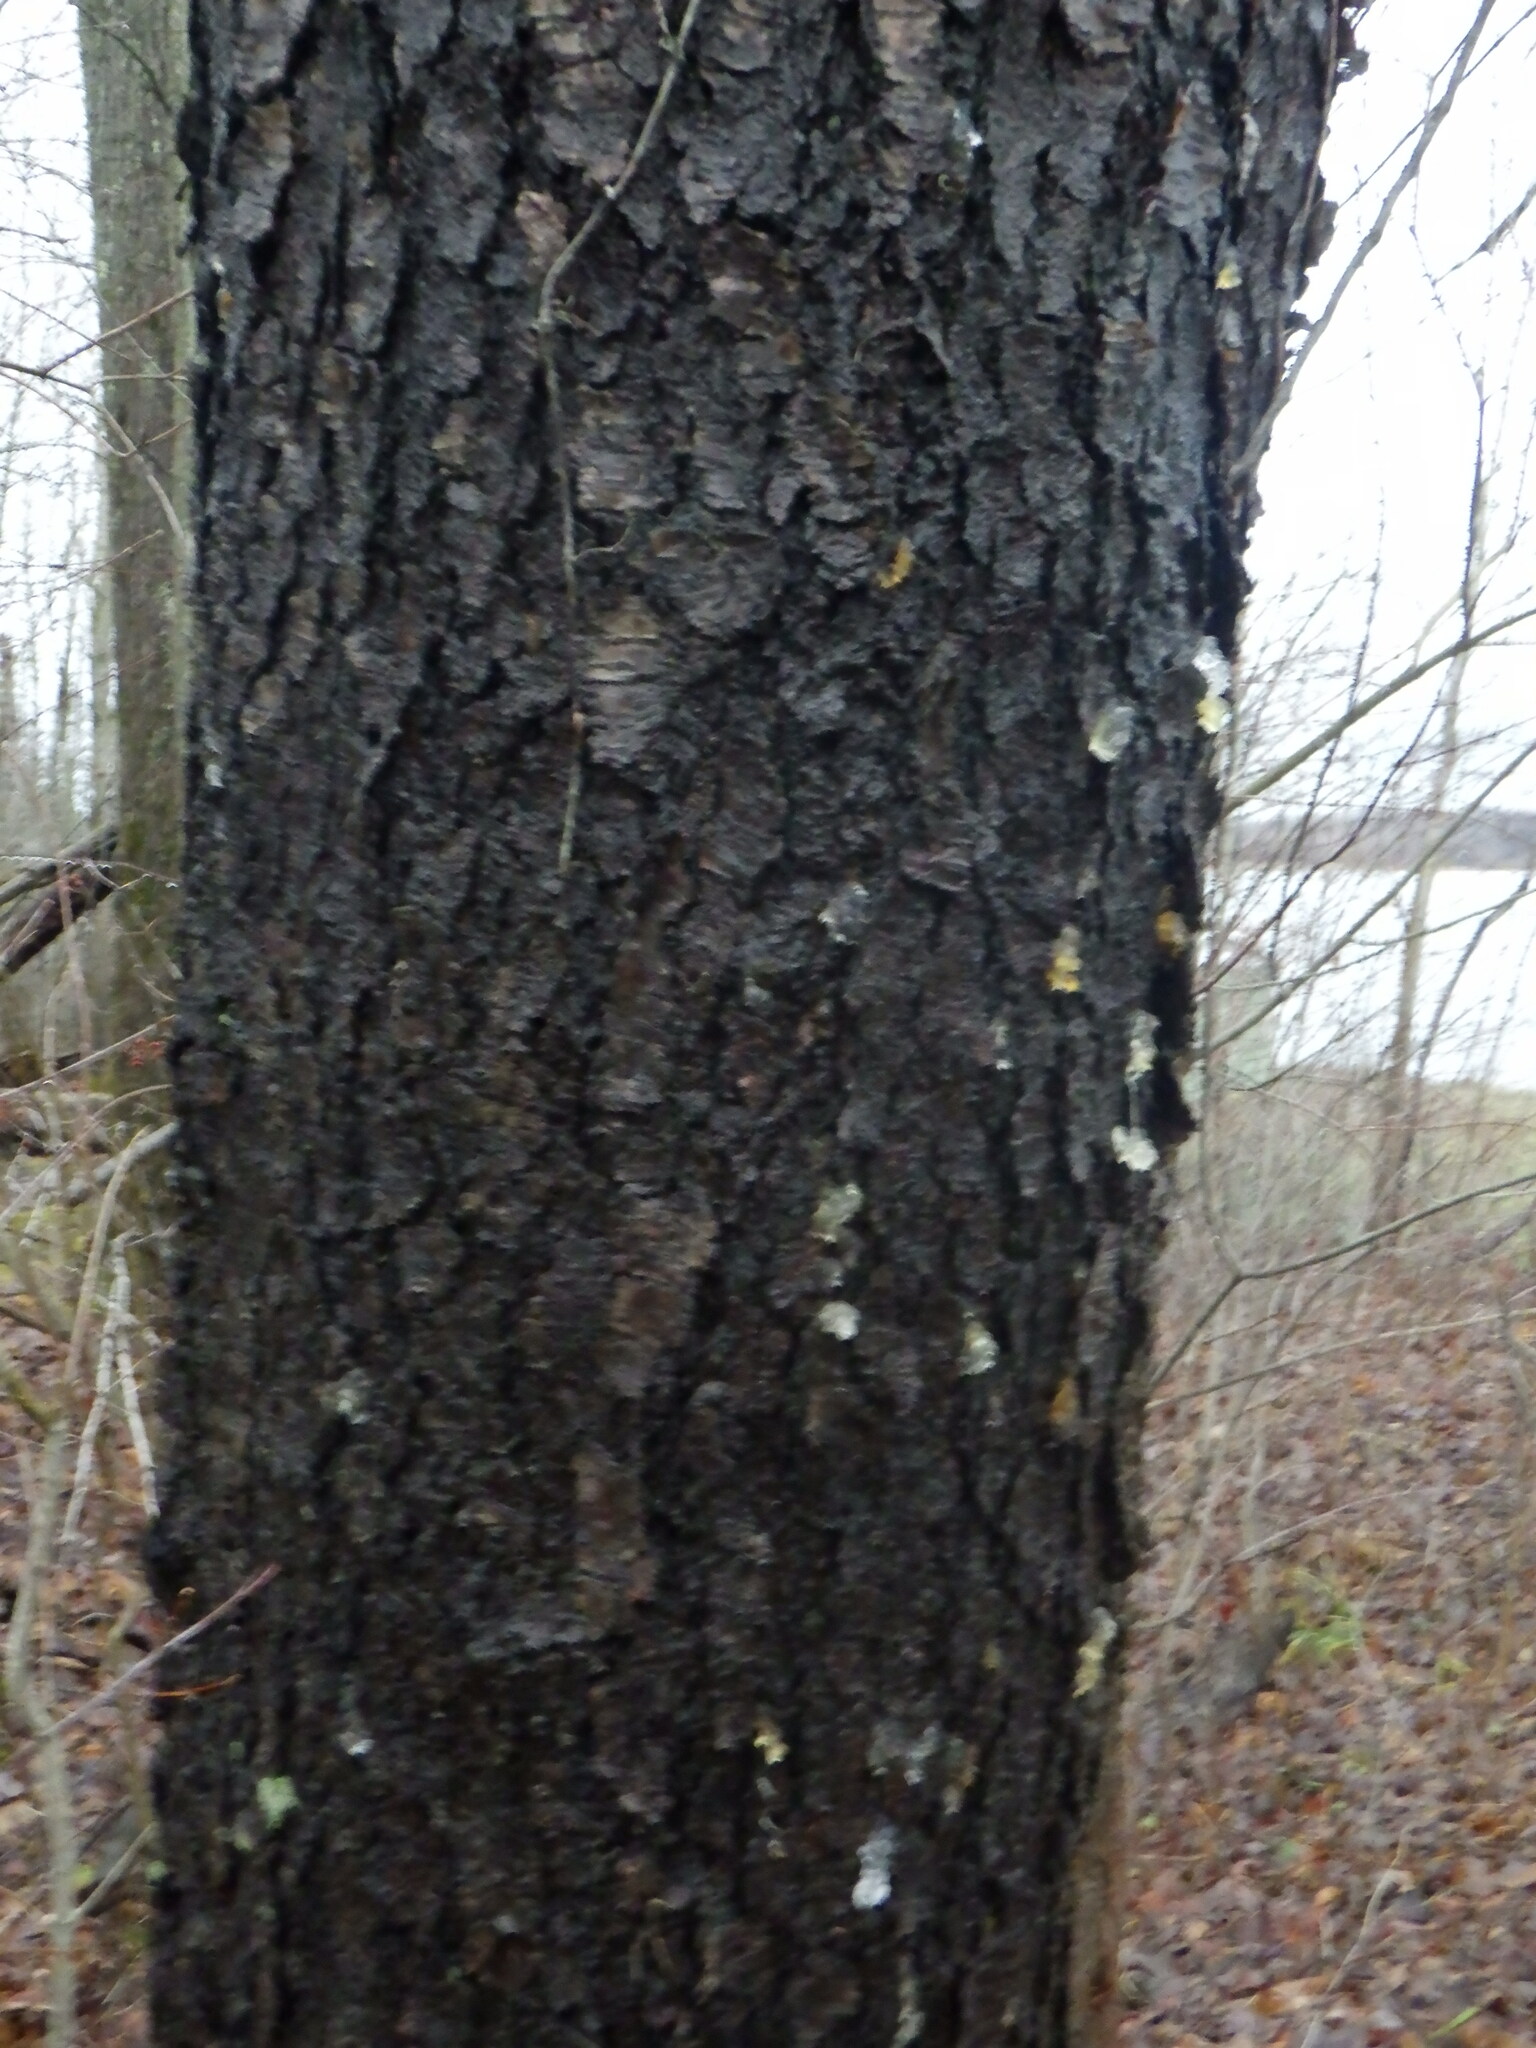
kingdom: Plantae
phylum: Tracheophyta
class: Magnoliopsida
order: Rosales
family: Rosaceae
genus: Prunus
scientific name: Prunus serotina
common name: Black cherry
